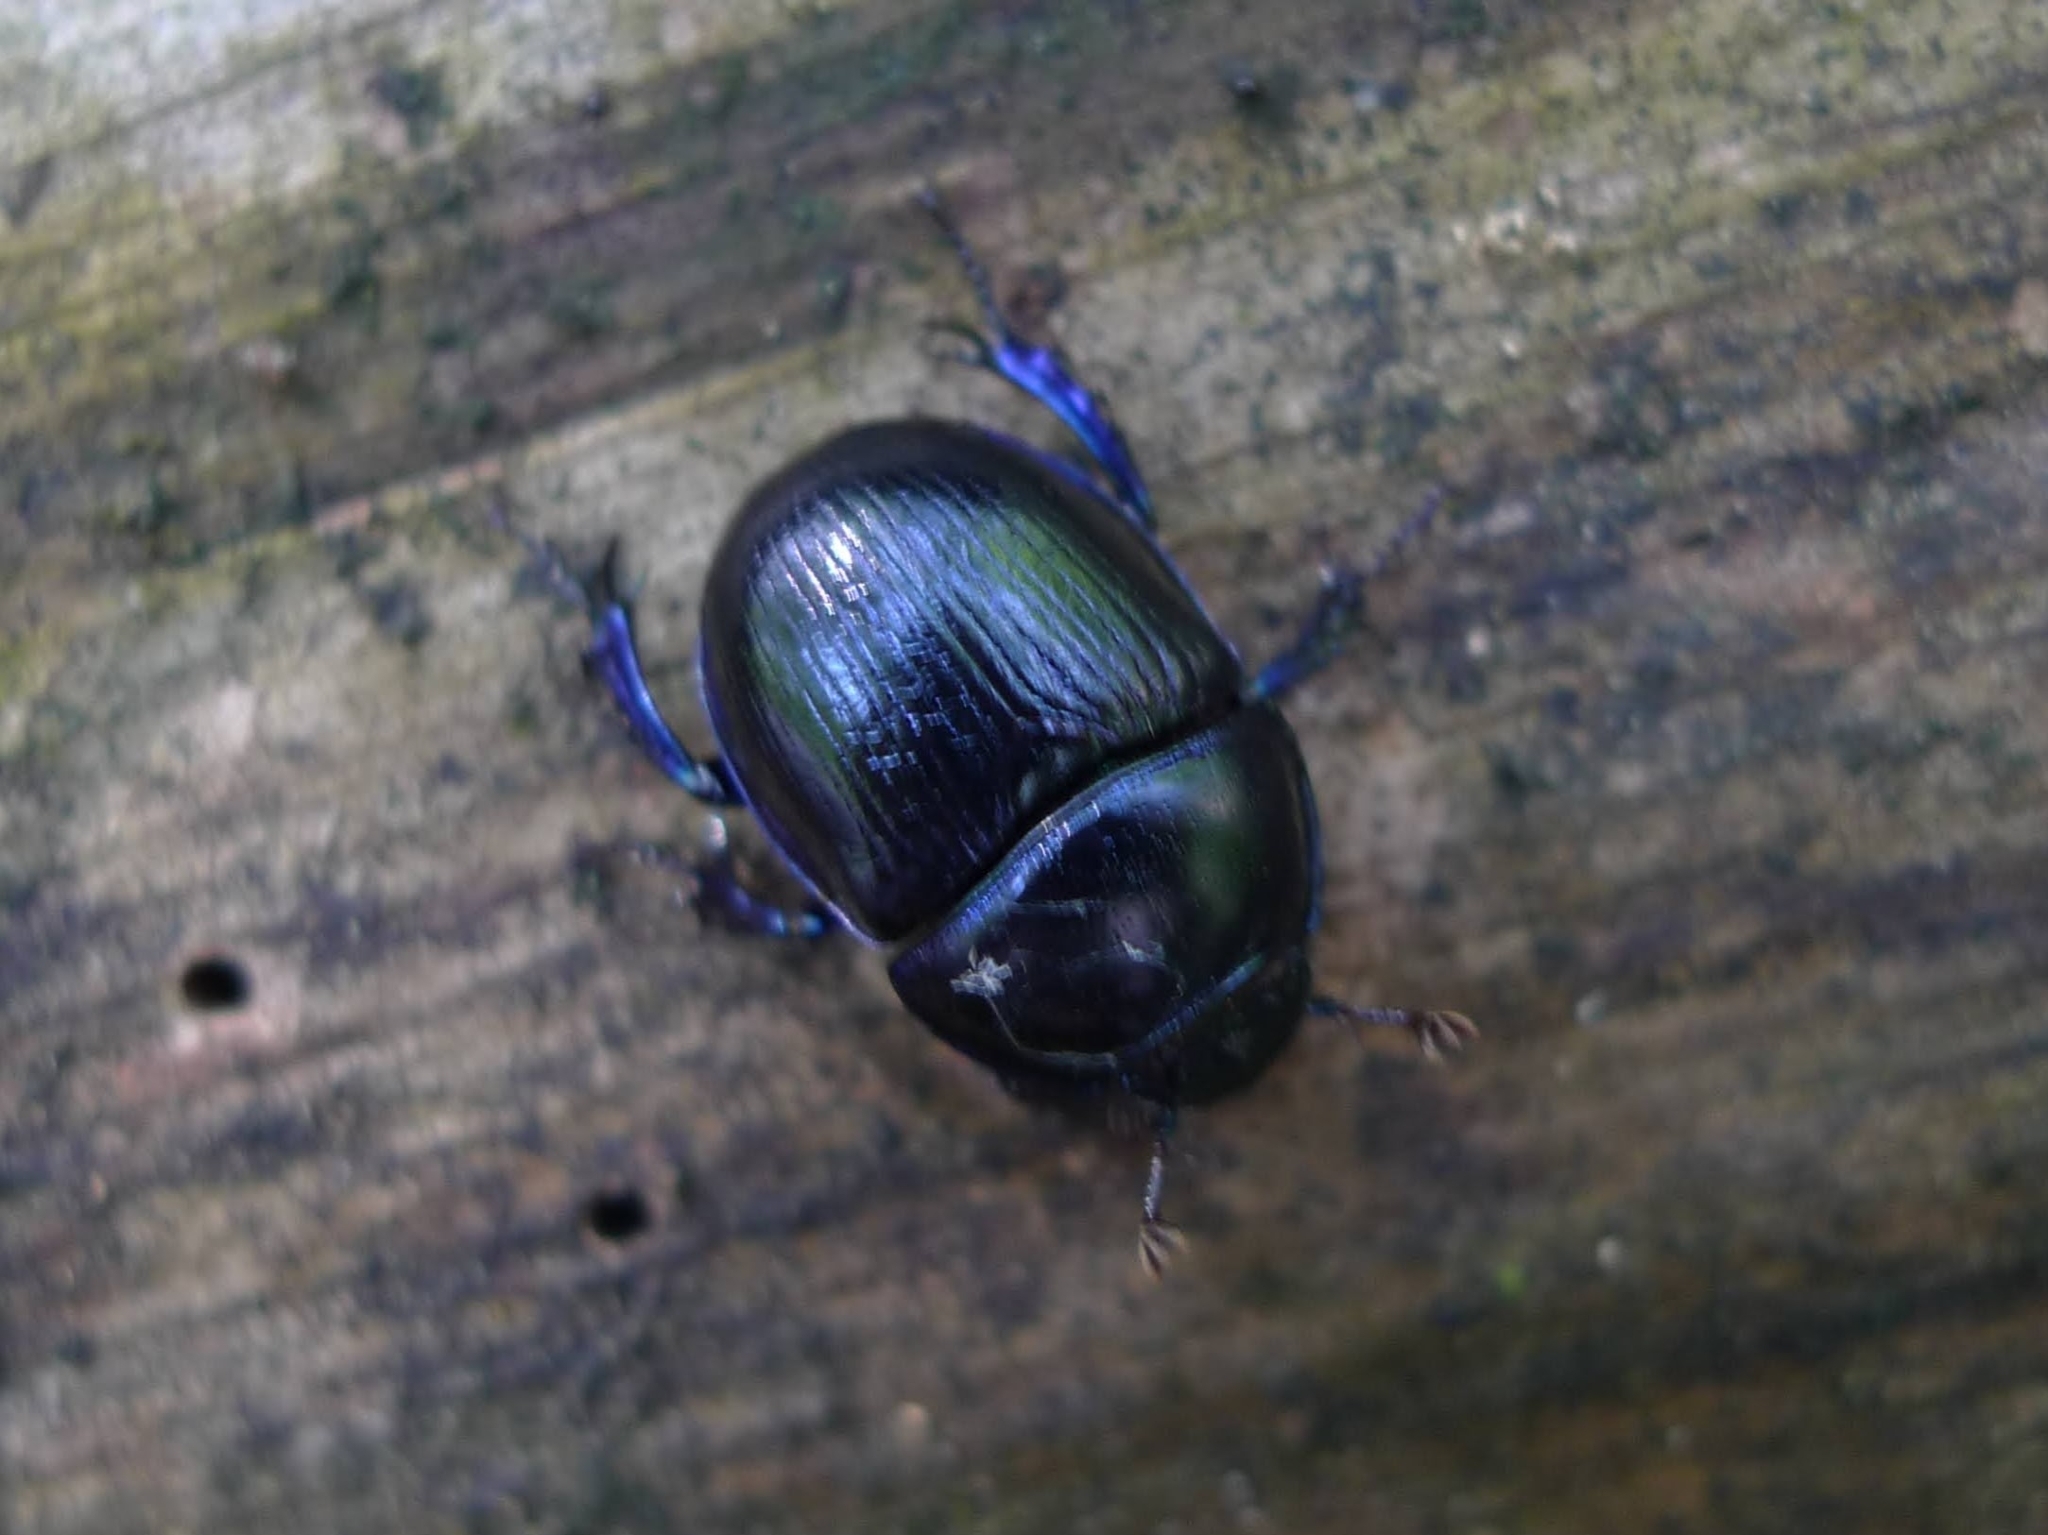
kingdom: Animalia
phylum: Arthropoda
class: Insecta
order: Coleoptera
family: Geotrupidae
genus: Anoplotrupes
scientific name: Anoplotrupes stercorosus
